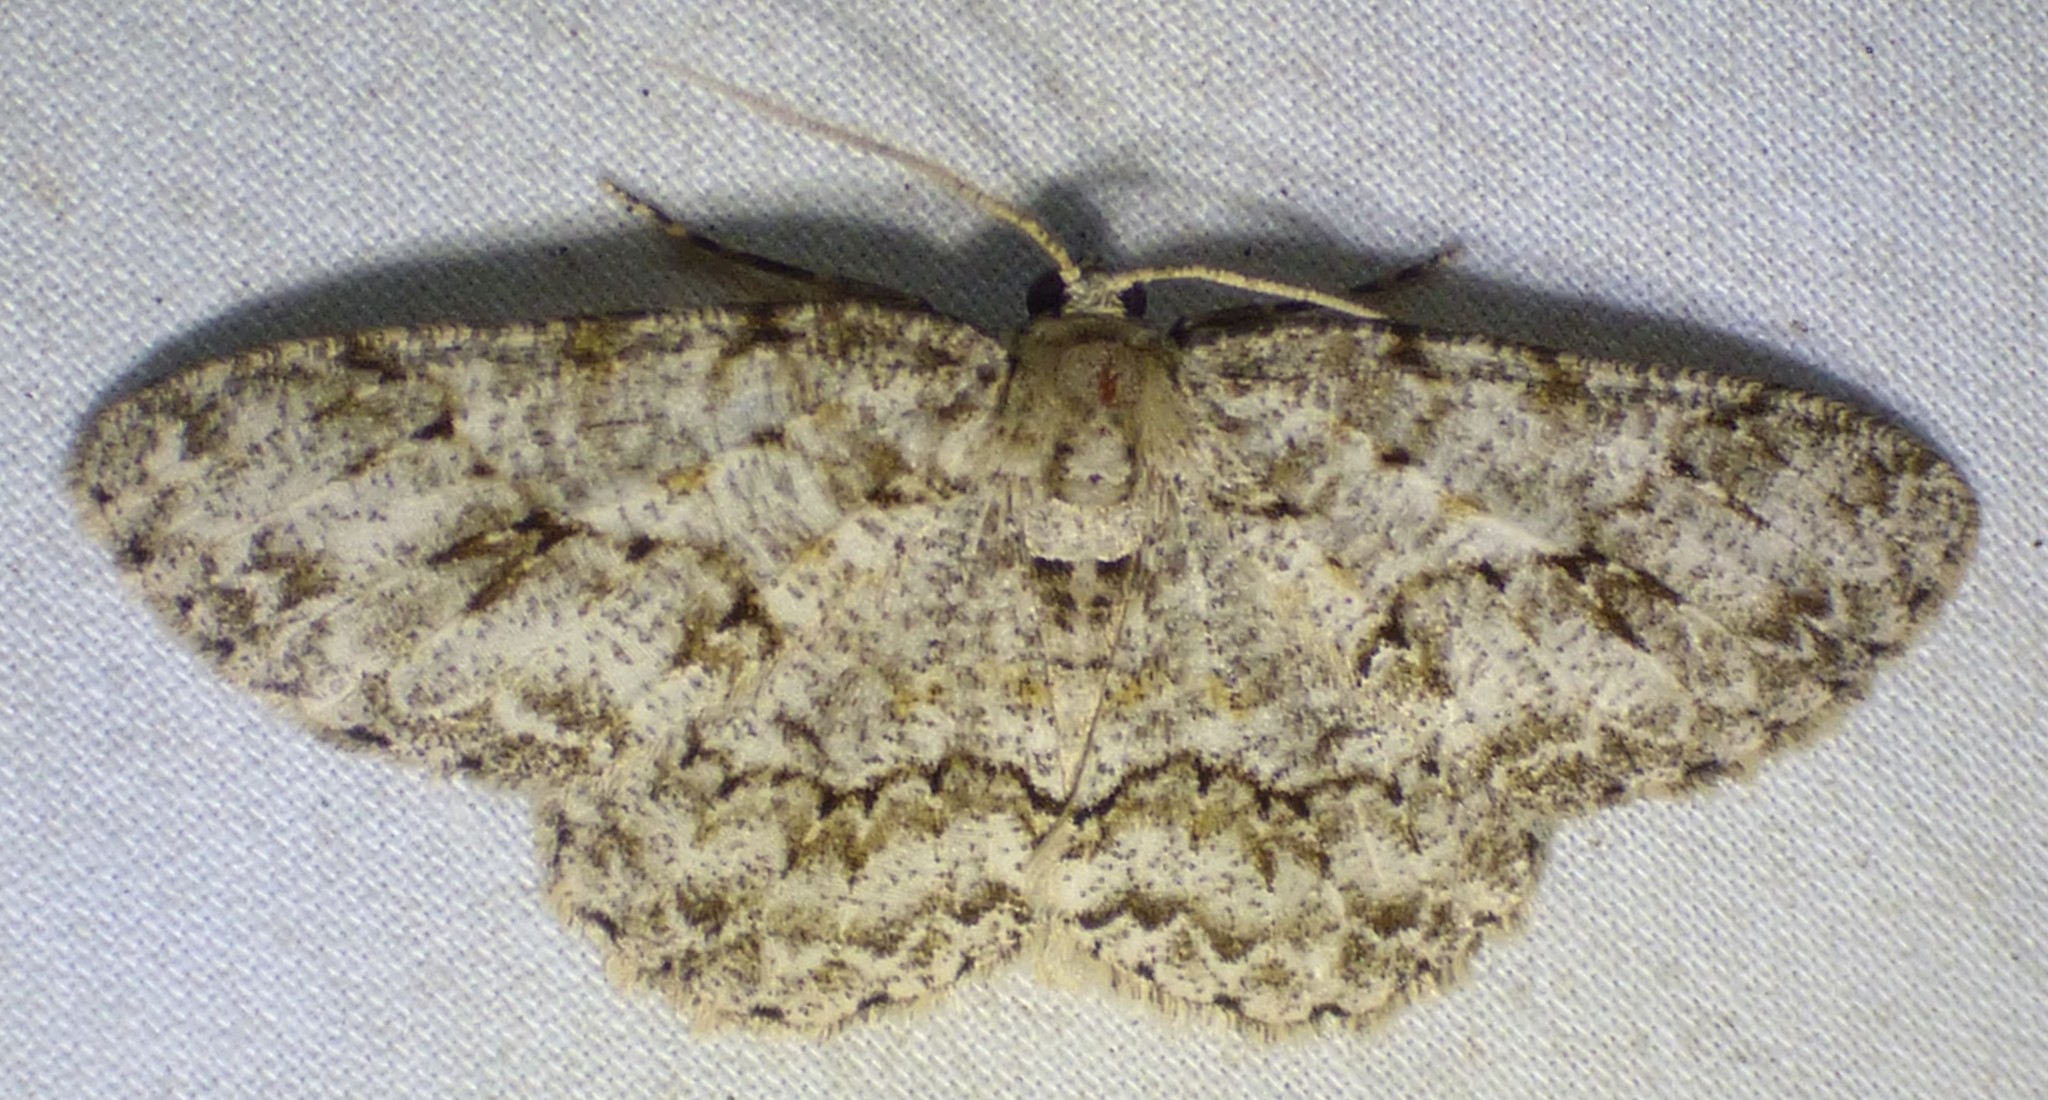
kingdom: Animalia
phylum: Arthropoda
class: Insecta
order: Lepidoptera
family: Geometridae
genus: Ectropis
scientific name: Ectropis crepuscularia
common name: Engrailed
